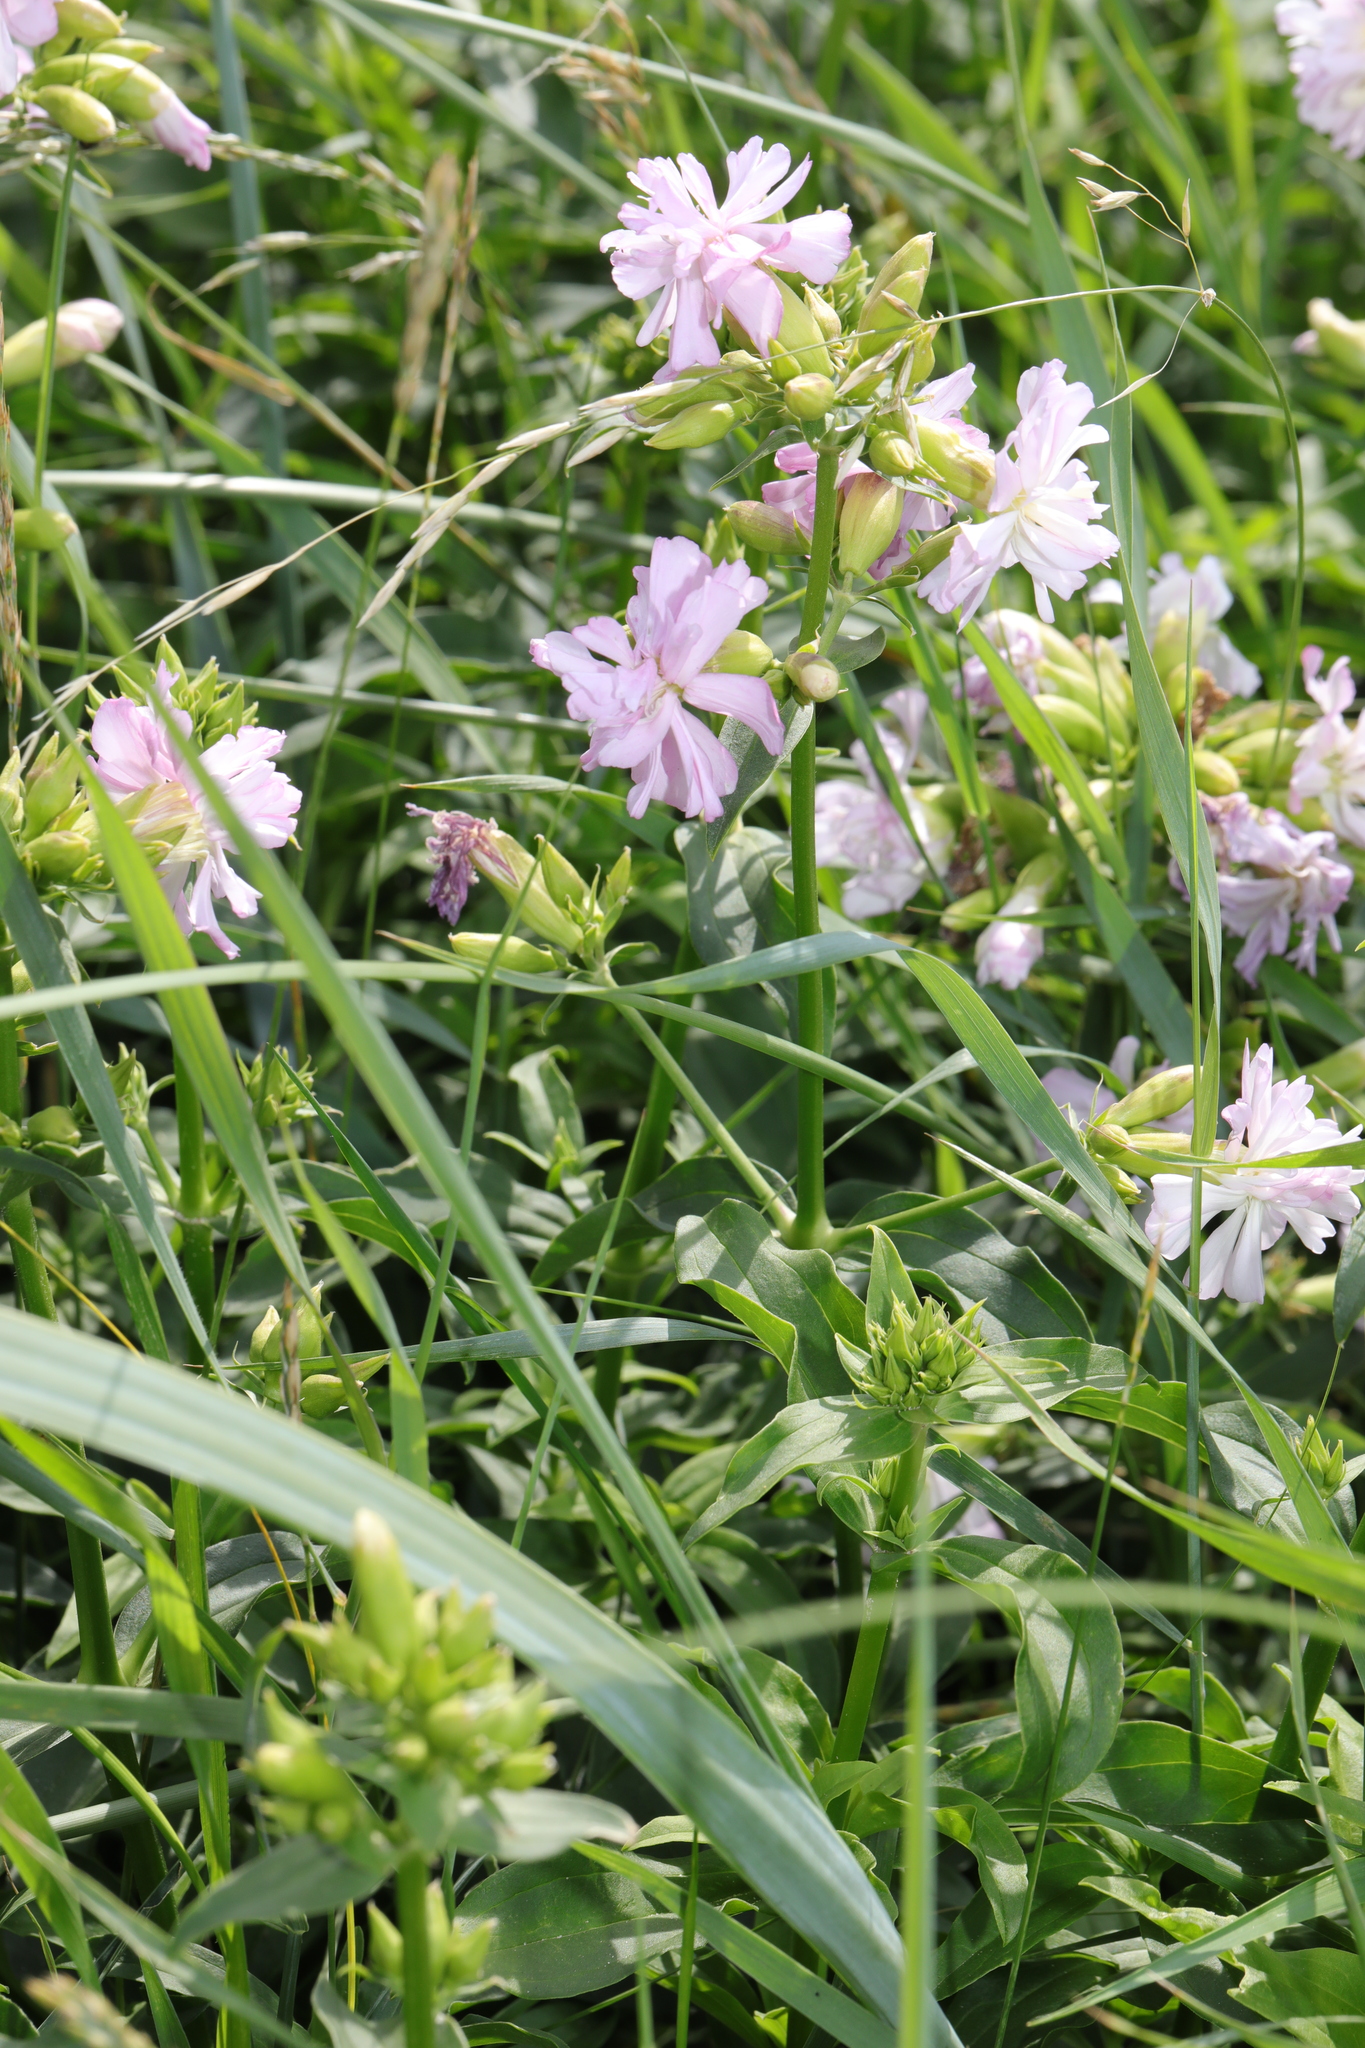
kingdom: Plantae
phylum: Tracheophyta
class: Magnoliopsida
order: Caryophyllales
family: Caryophyllaceae
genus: Saponaria
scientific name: Saponaria officinalis
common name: Soapwort
